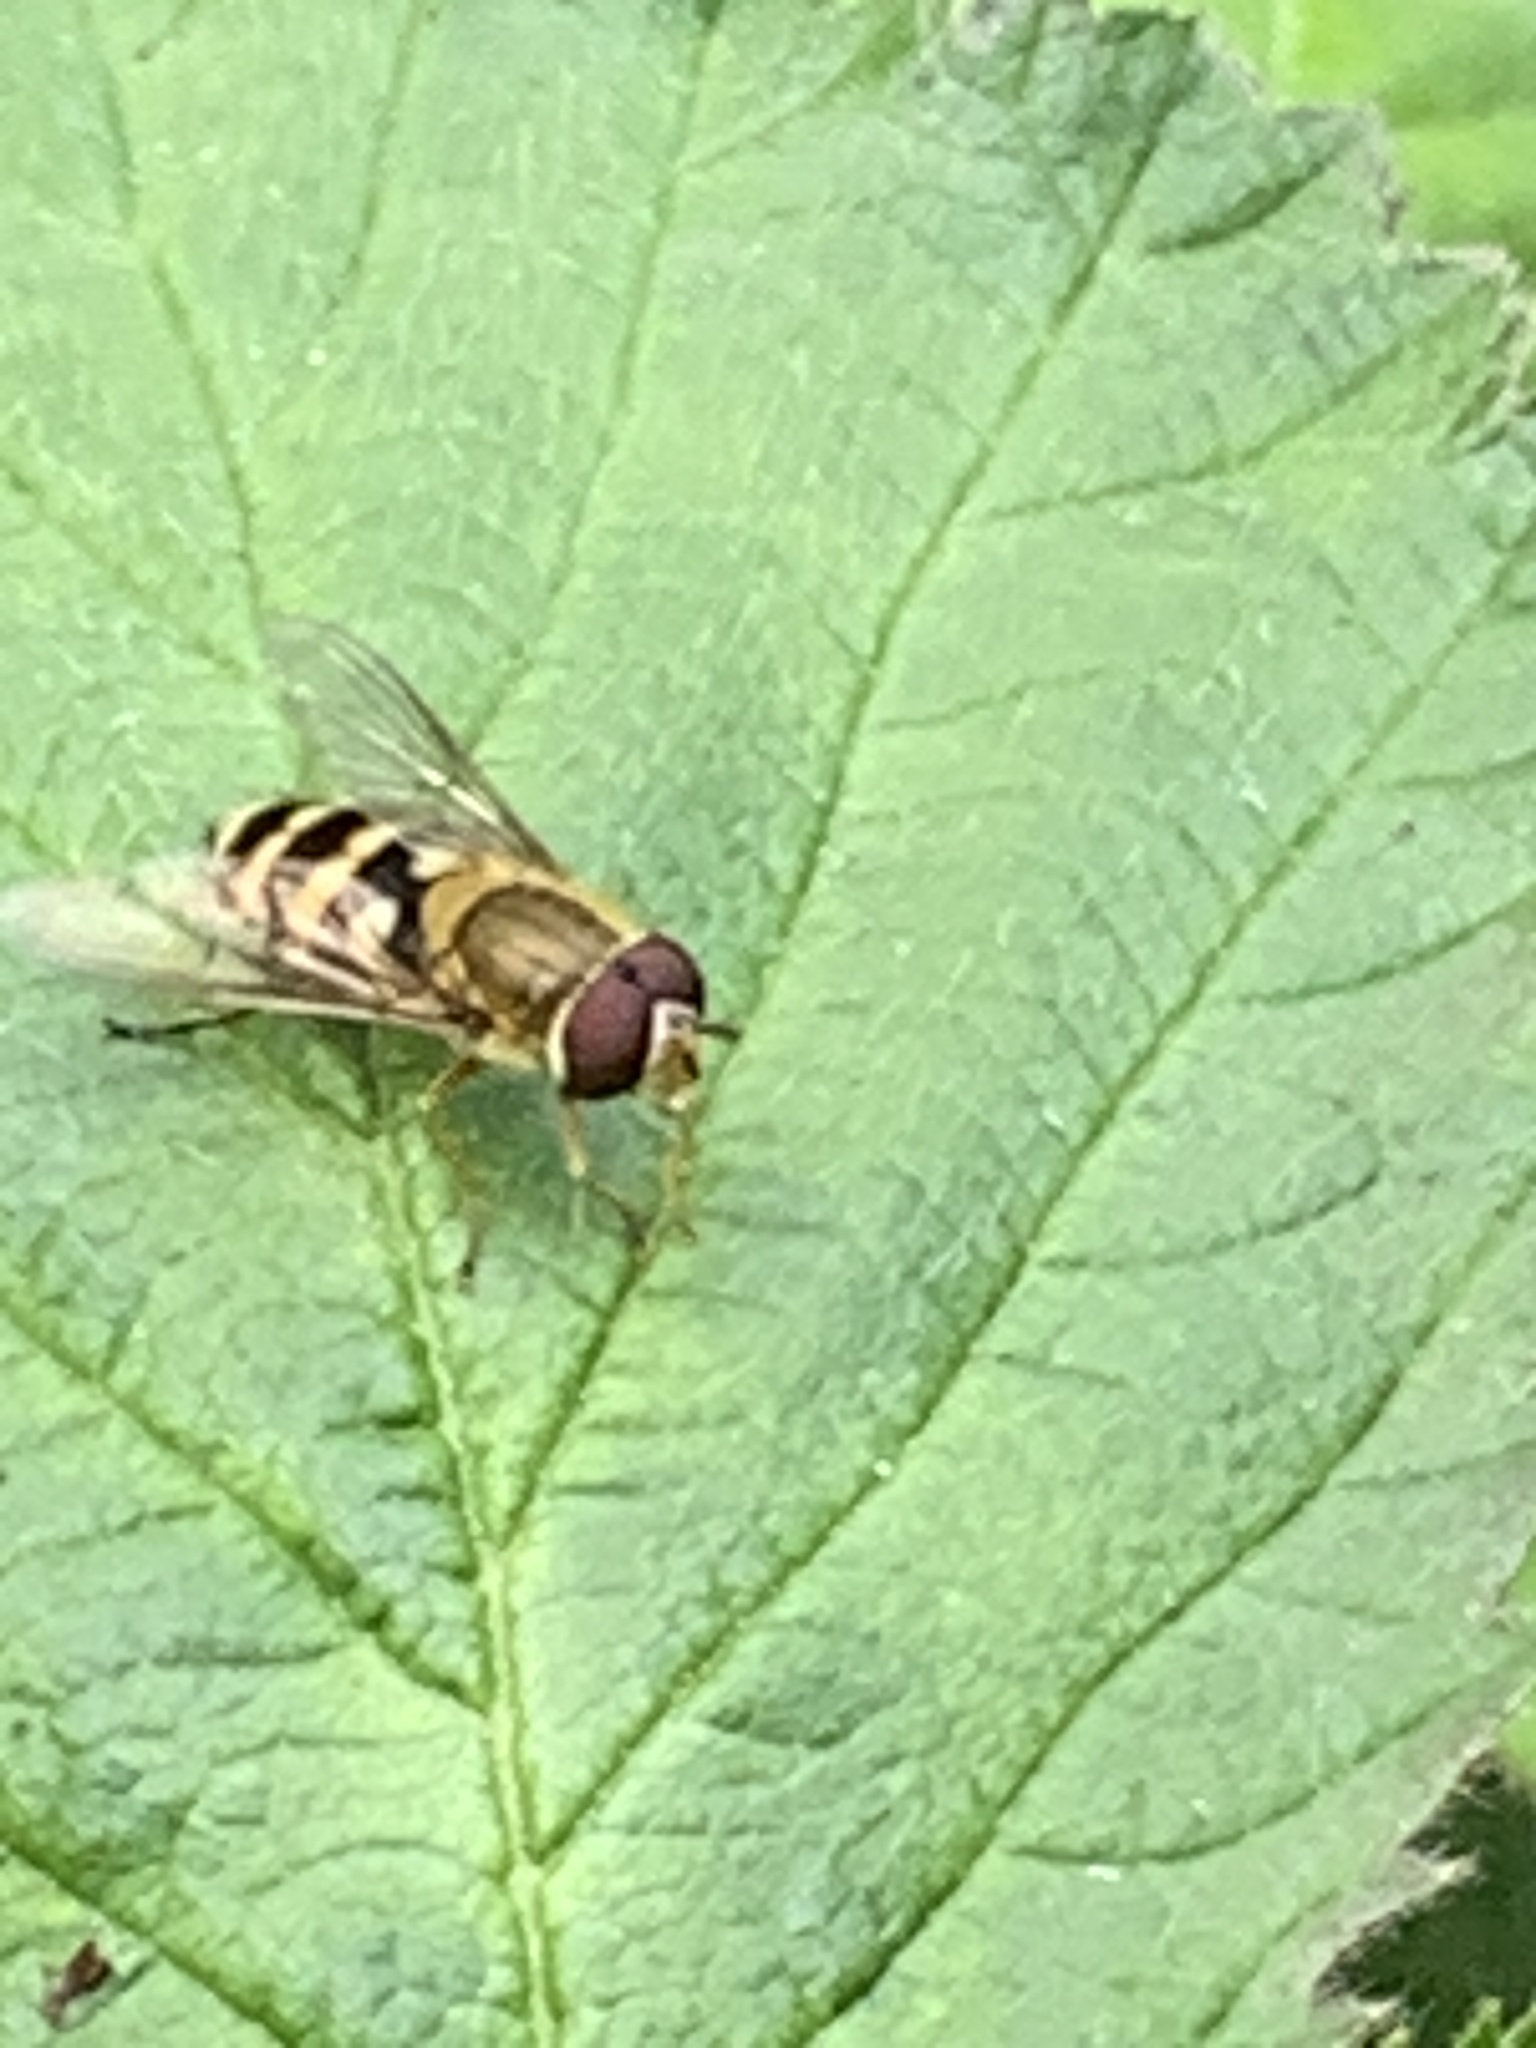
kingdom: Animalia
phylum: Arthropoda
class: Insecta
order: Diptera
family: Syrphidae
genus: Syrphus
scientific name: Syrphus
